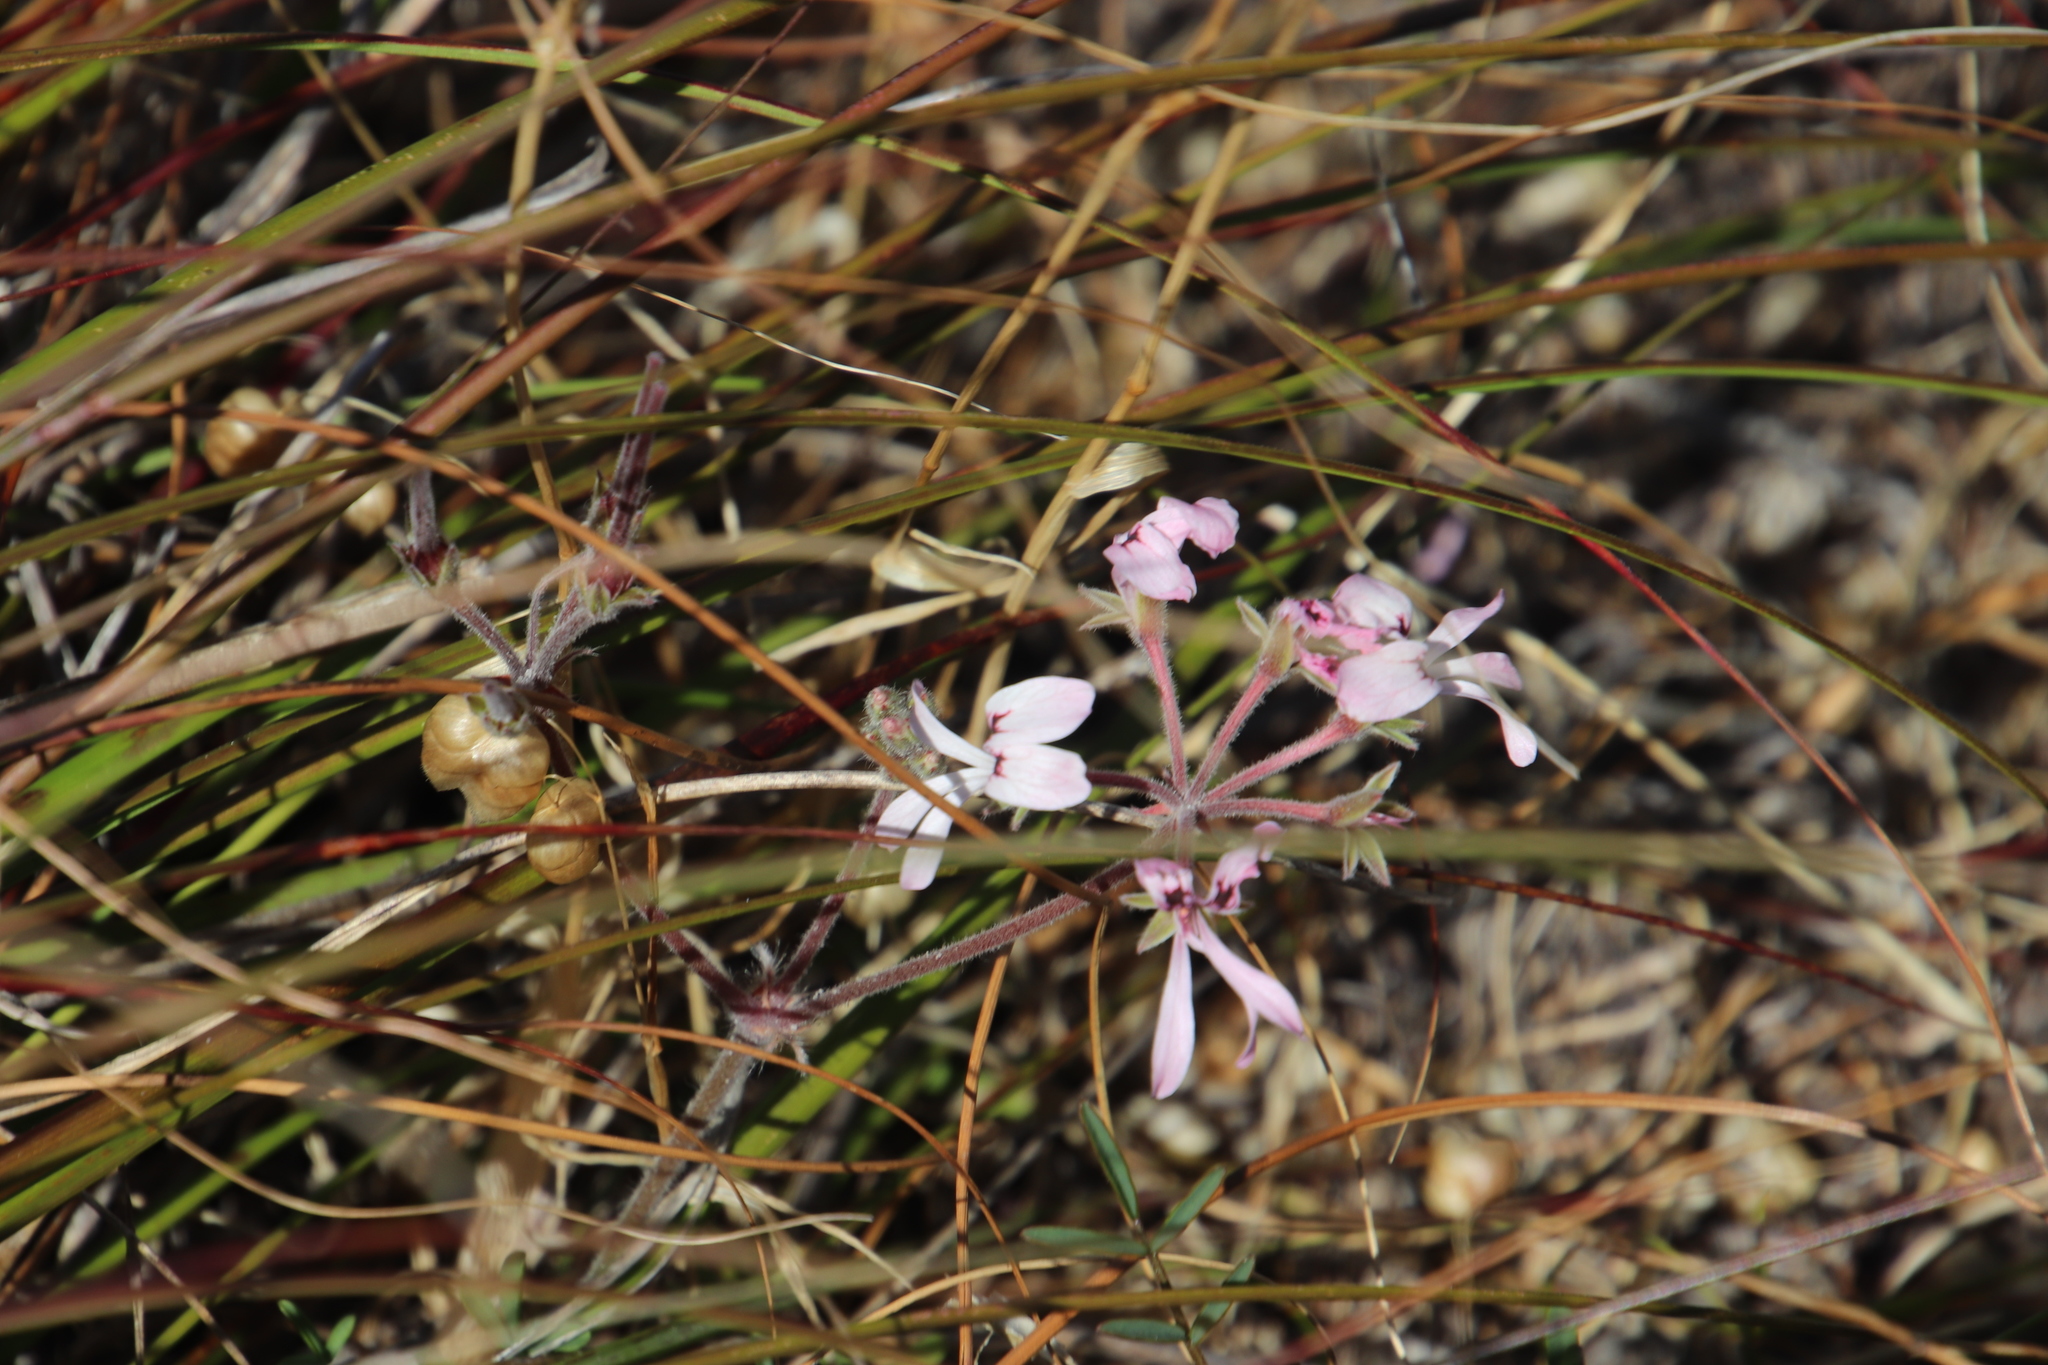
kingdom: Plantae
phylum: Tracheophyta
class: Magnoliopsida
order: Geraniales
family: Geraniaceae
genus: Pelargonium
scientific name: Pelargonium psammophilum
